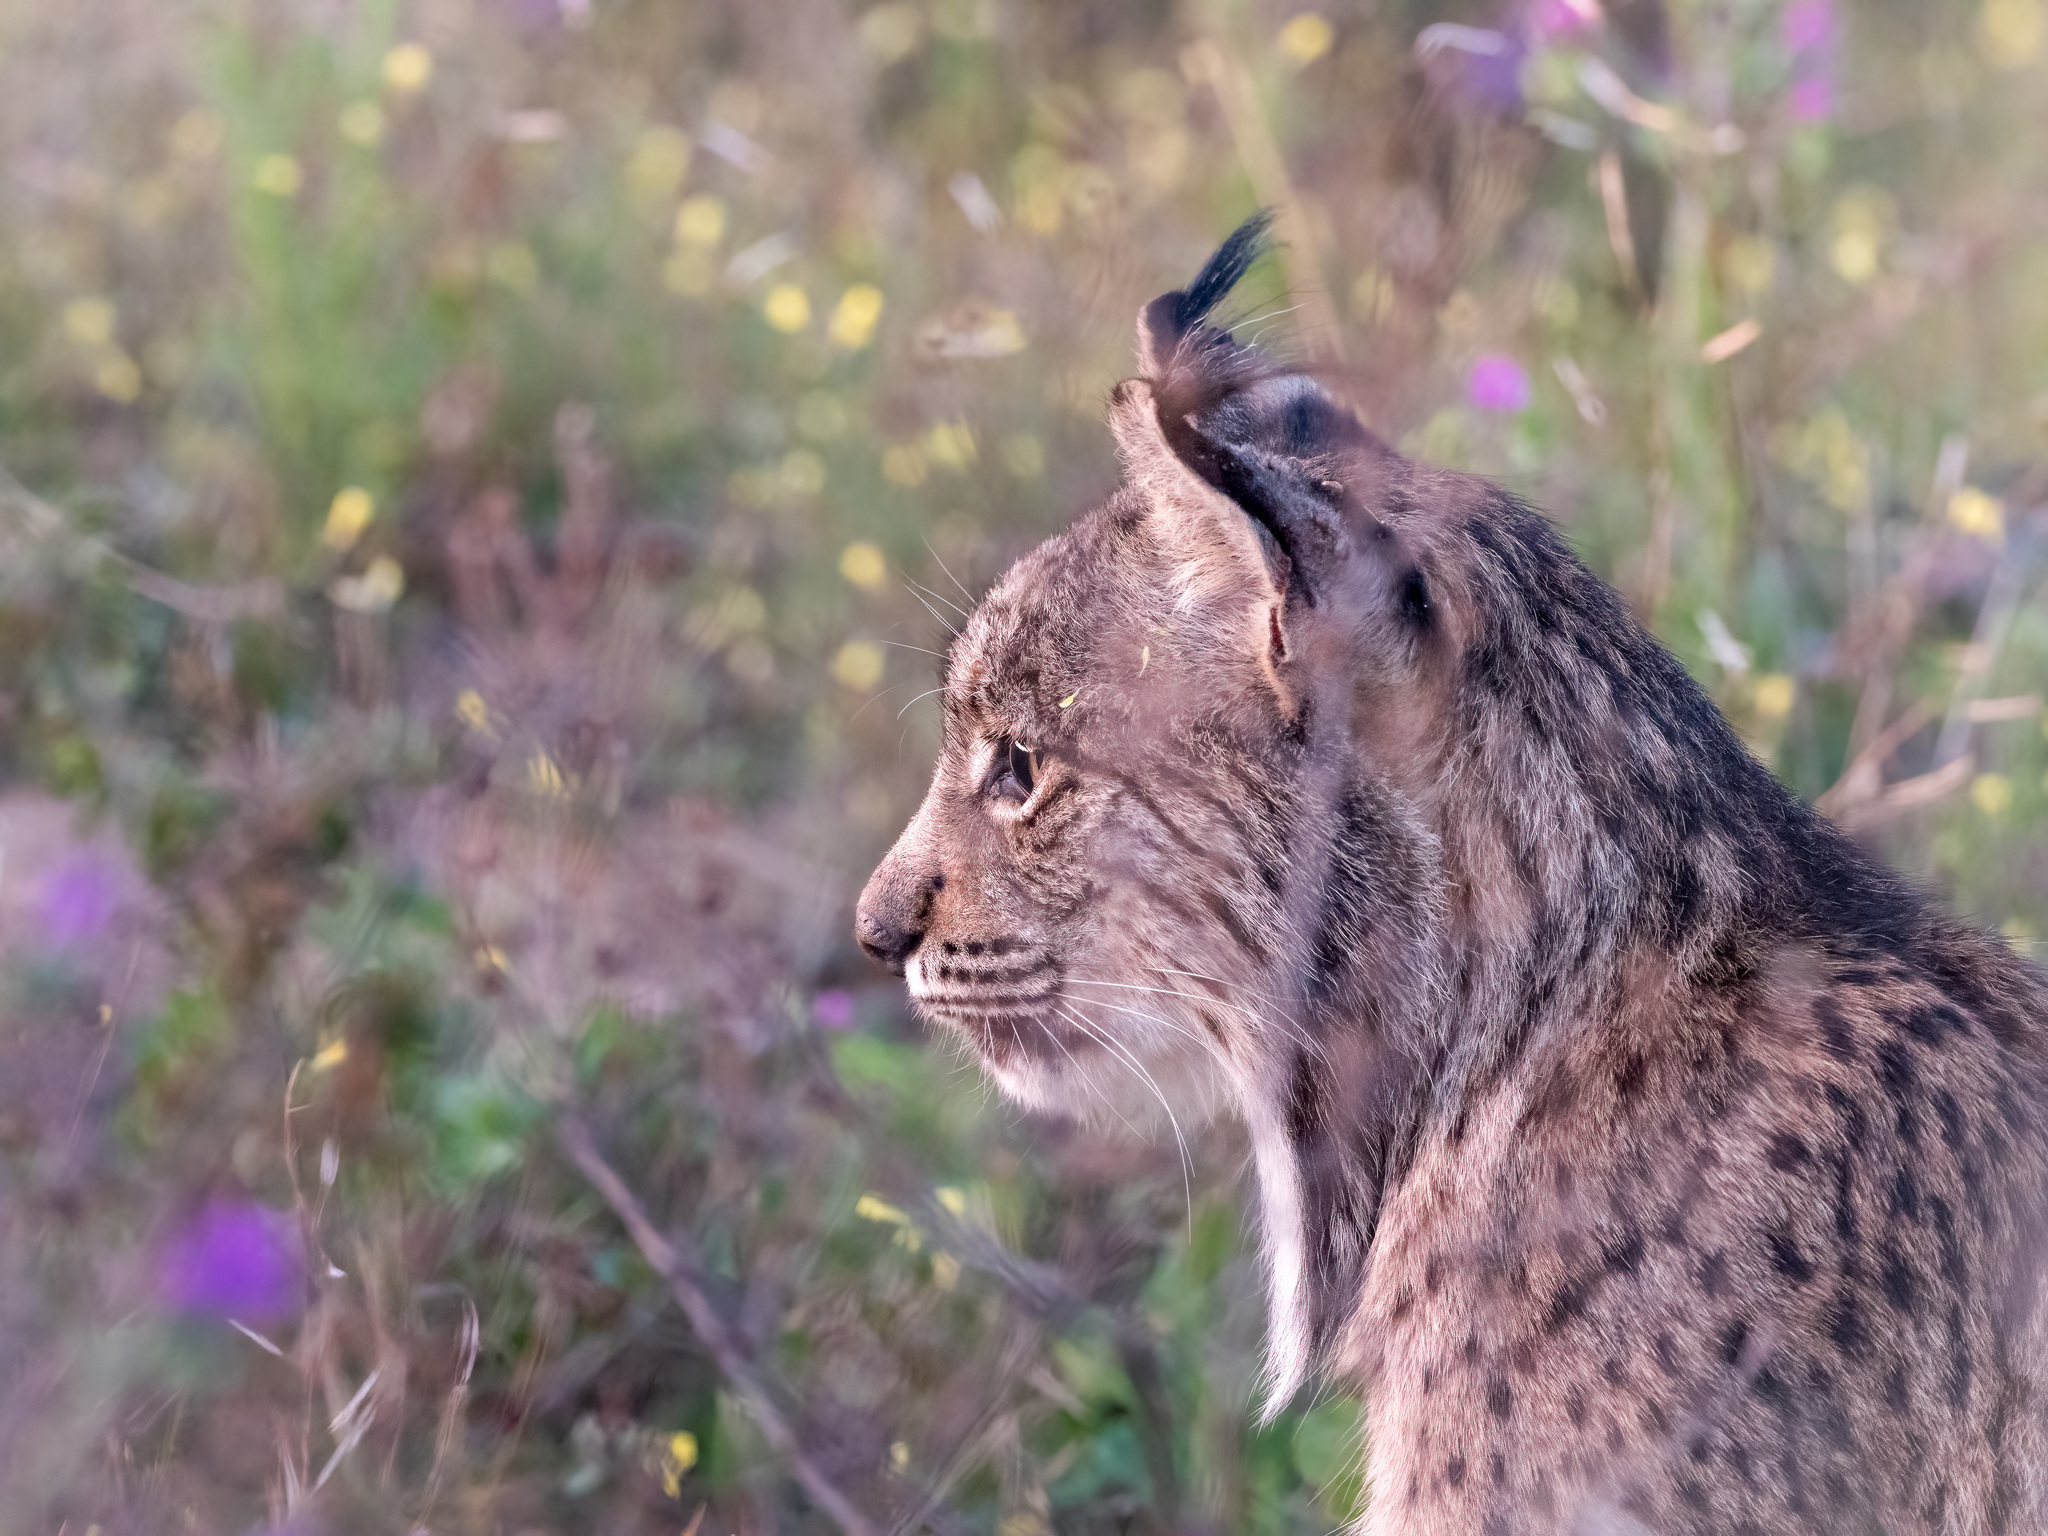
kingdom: Animalia
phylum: Chordata
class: Mammalia
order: Carnivora
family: Felidae
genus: Lynx
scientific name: Lynx pardinus
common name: Spanish lynx
